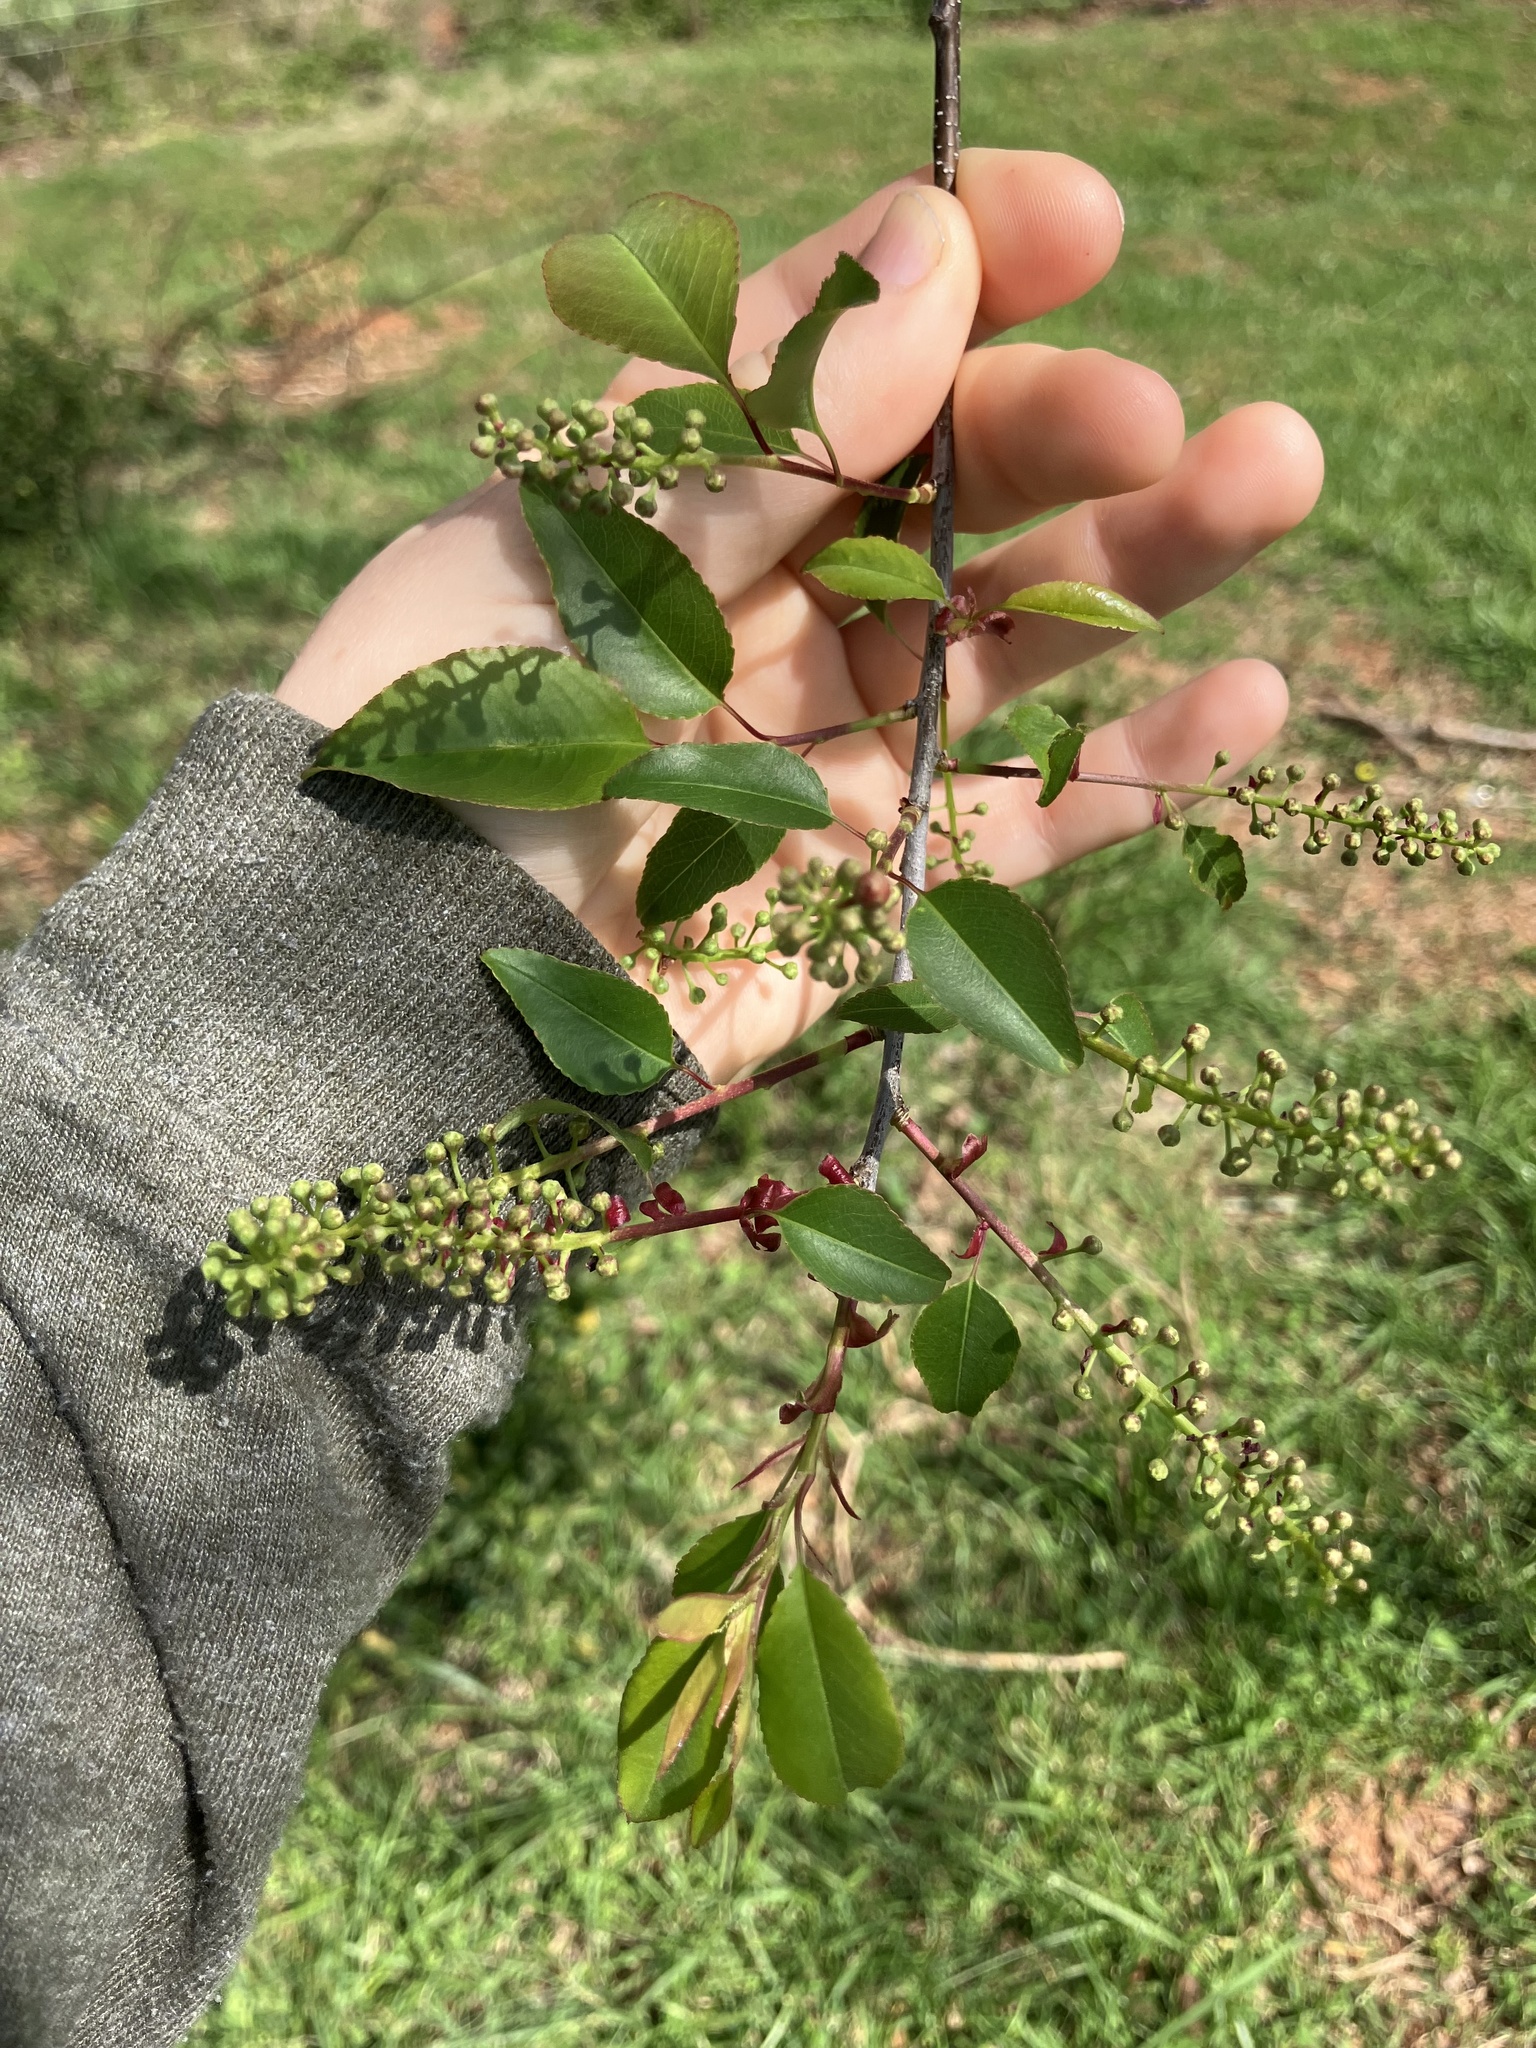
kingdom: Plantae
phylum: Tracheophyta
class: Magnoliopsida
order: Rosales
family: Rosaceae
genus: Prunus
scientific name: Prunus serotina
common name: Black cherry
